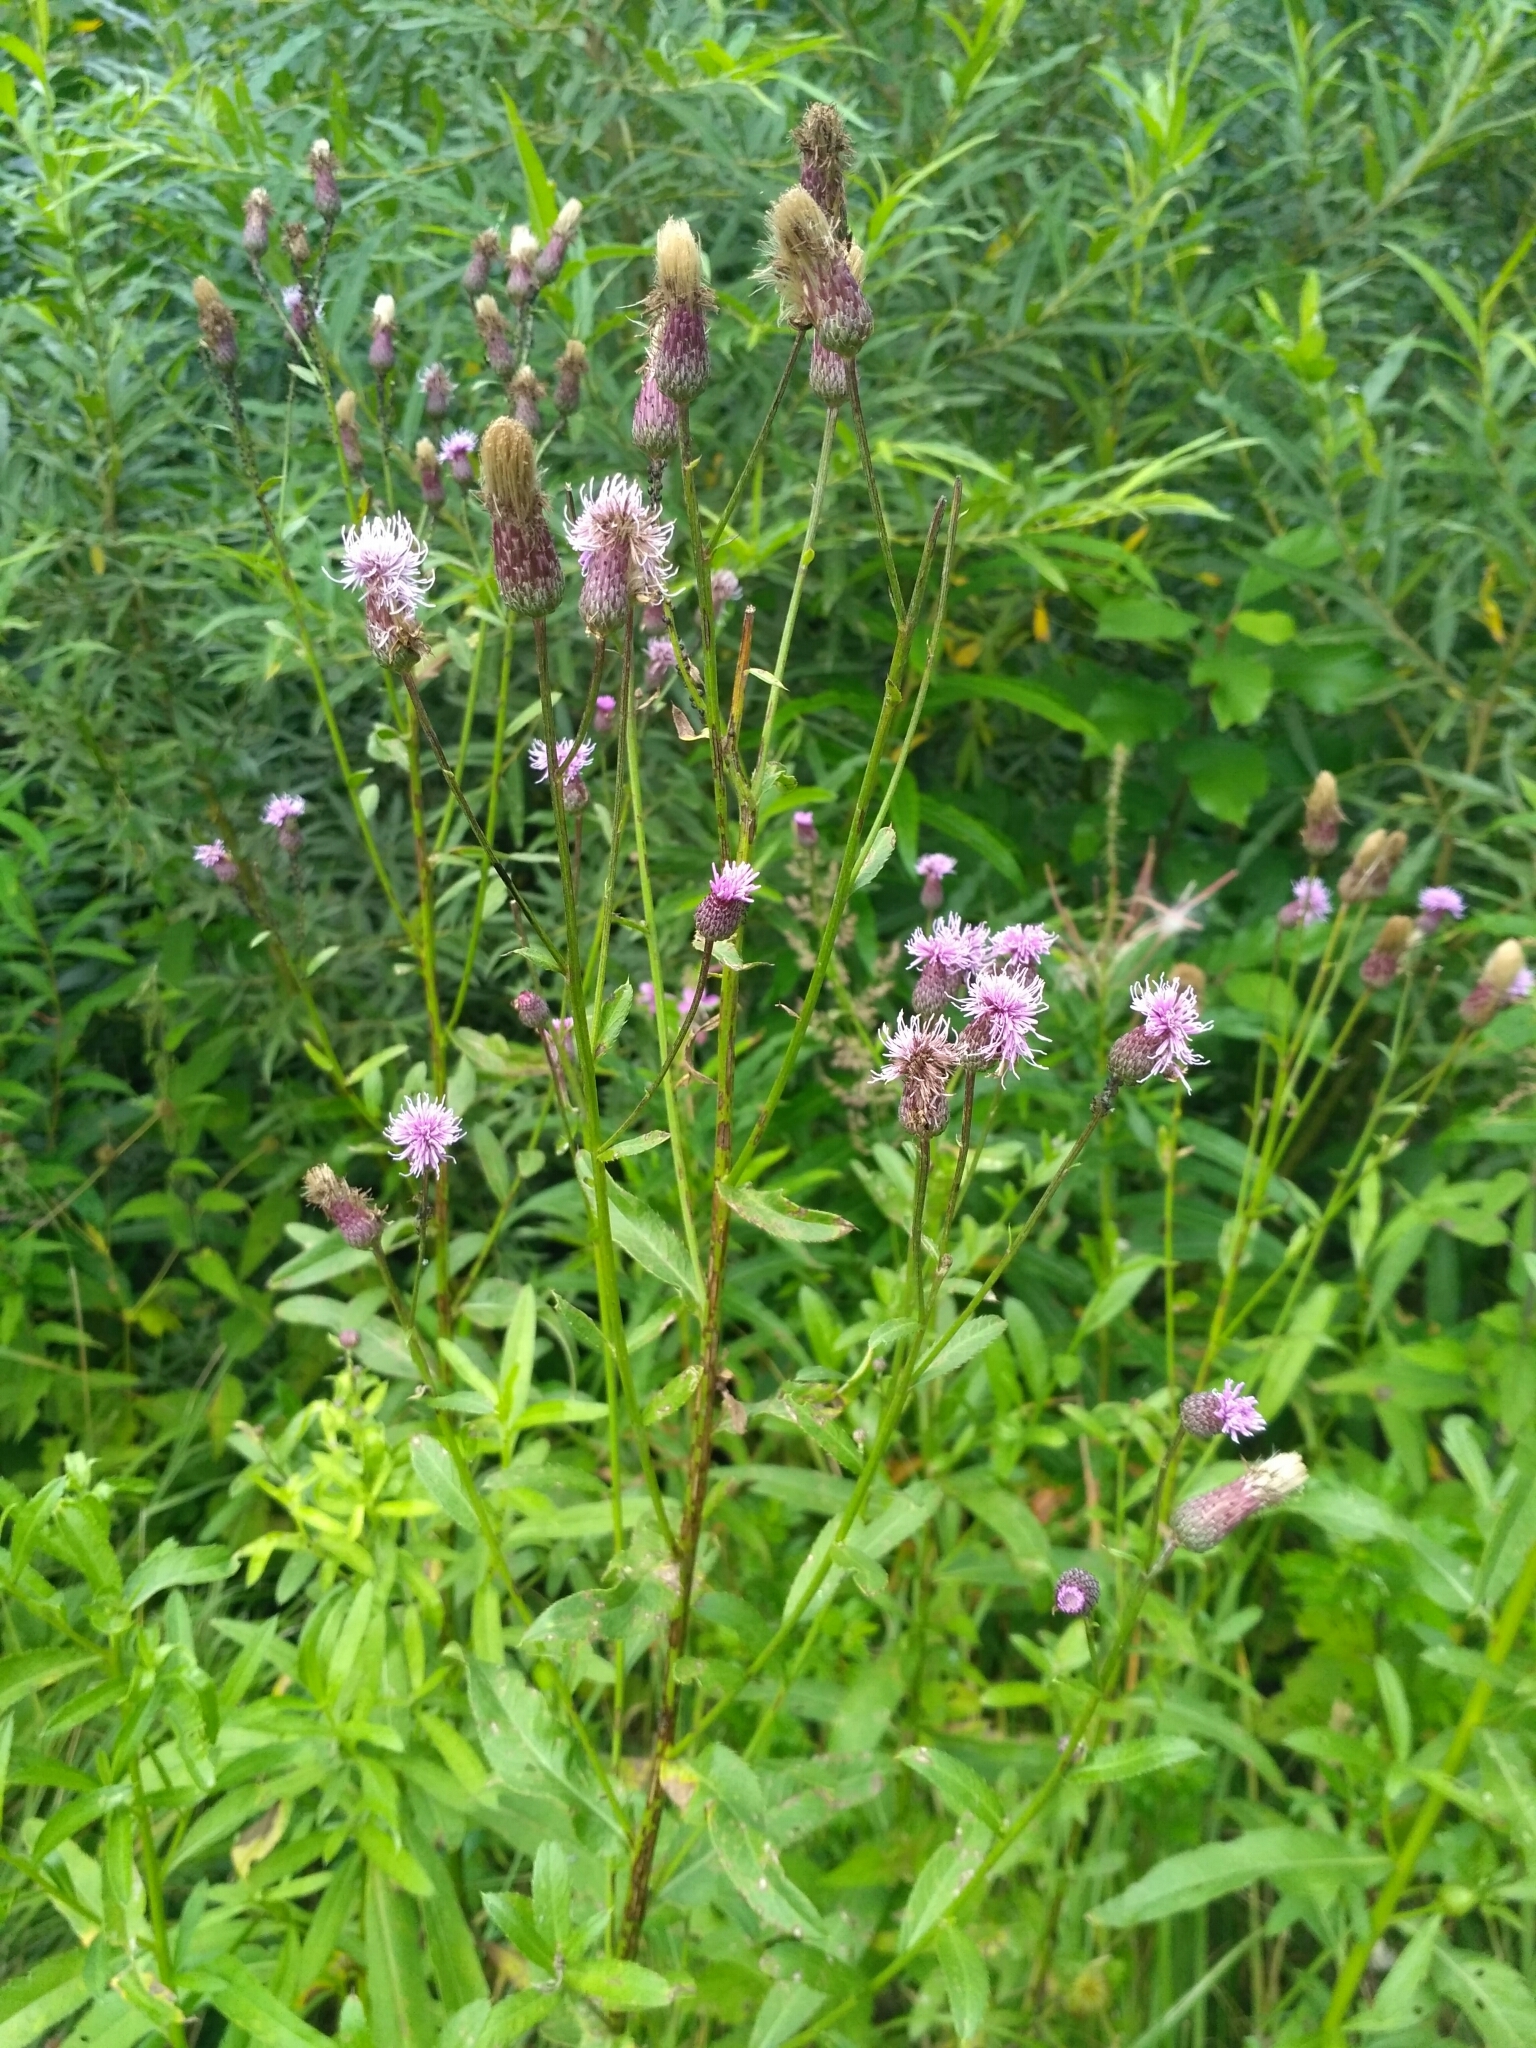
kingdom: Plantae
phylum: Tracheophyta
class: Magnoliopsida
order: Asterales
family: Asteraceae
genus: Cirsium
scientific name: Cirsium arvense
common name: Creeping thistle
